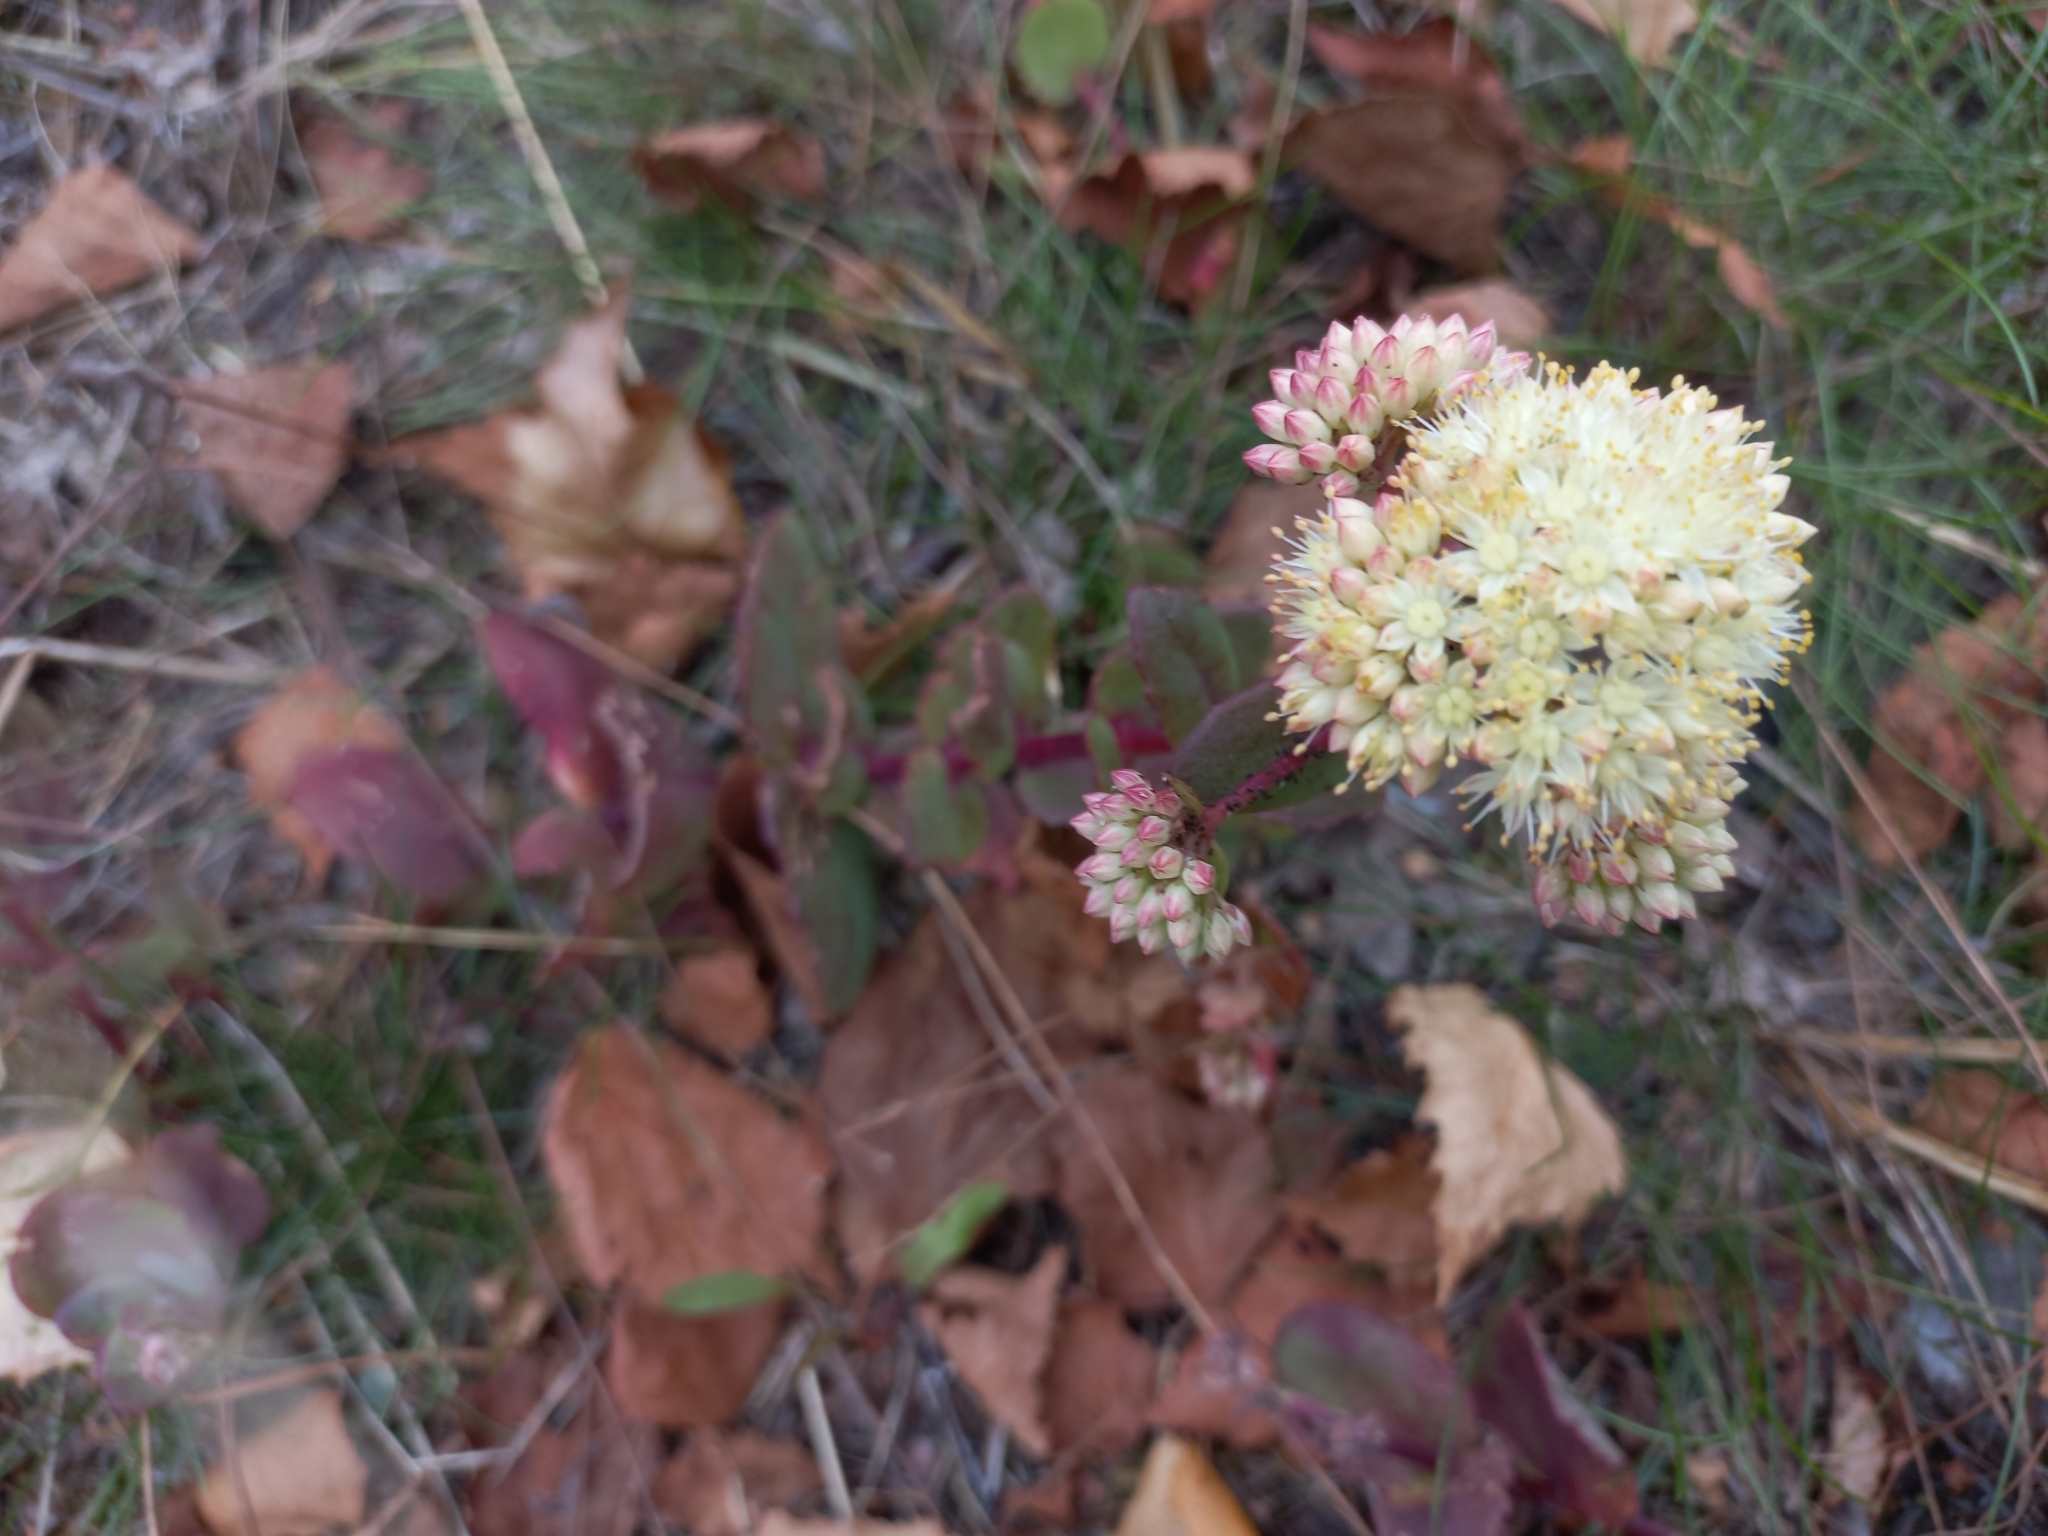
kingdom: Plantae
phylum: Tracheophyta
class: Magnoliopsida
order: Saxifragales
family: Crassulaceae
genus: Hylotelephium
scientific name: Hylotelephium maximum
